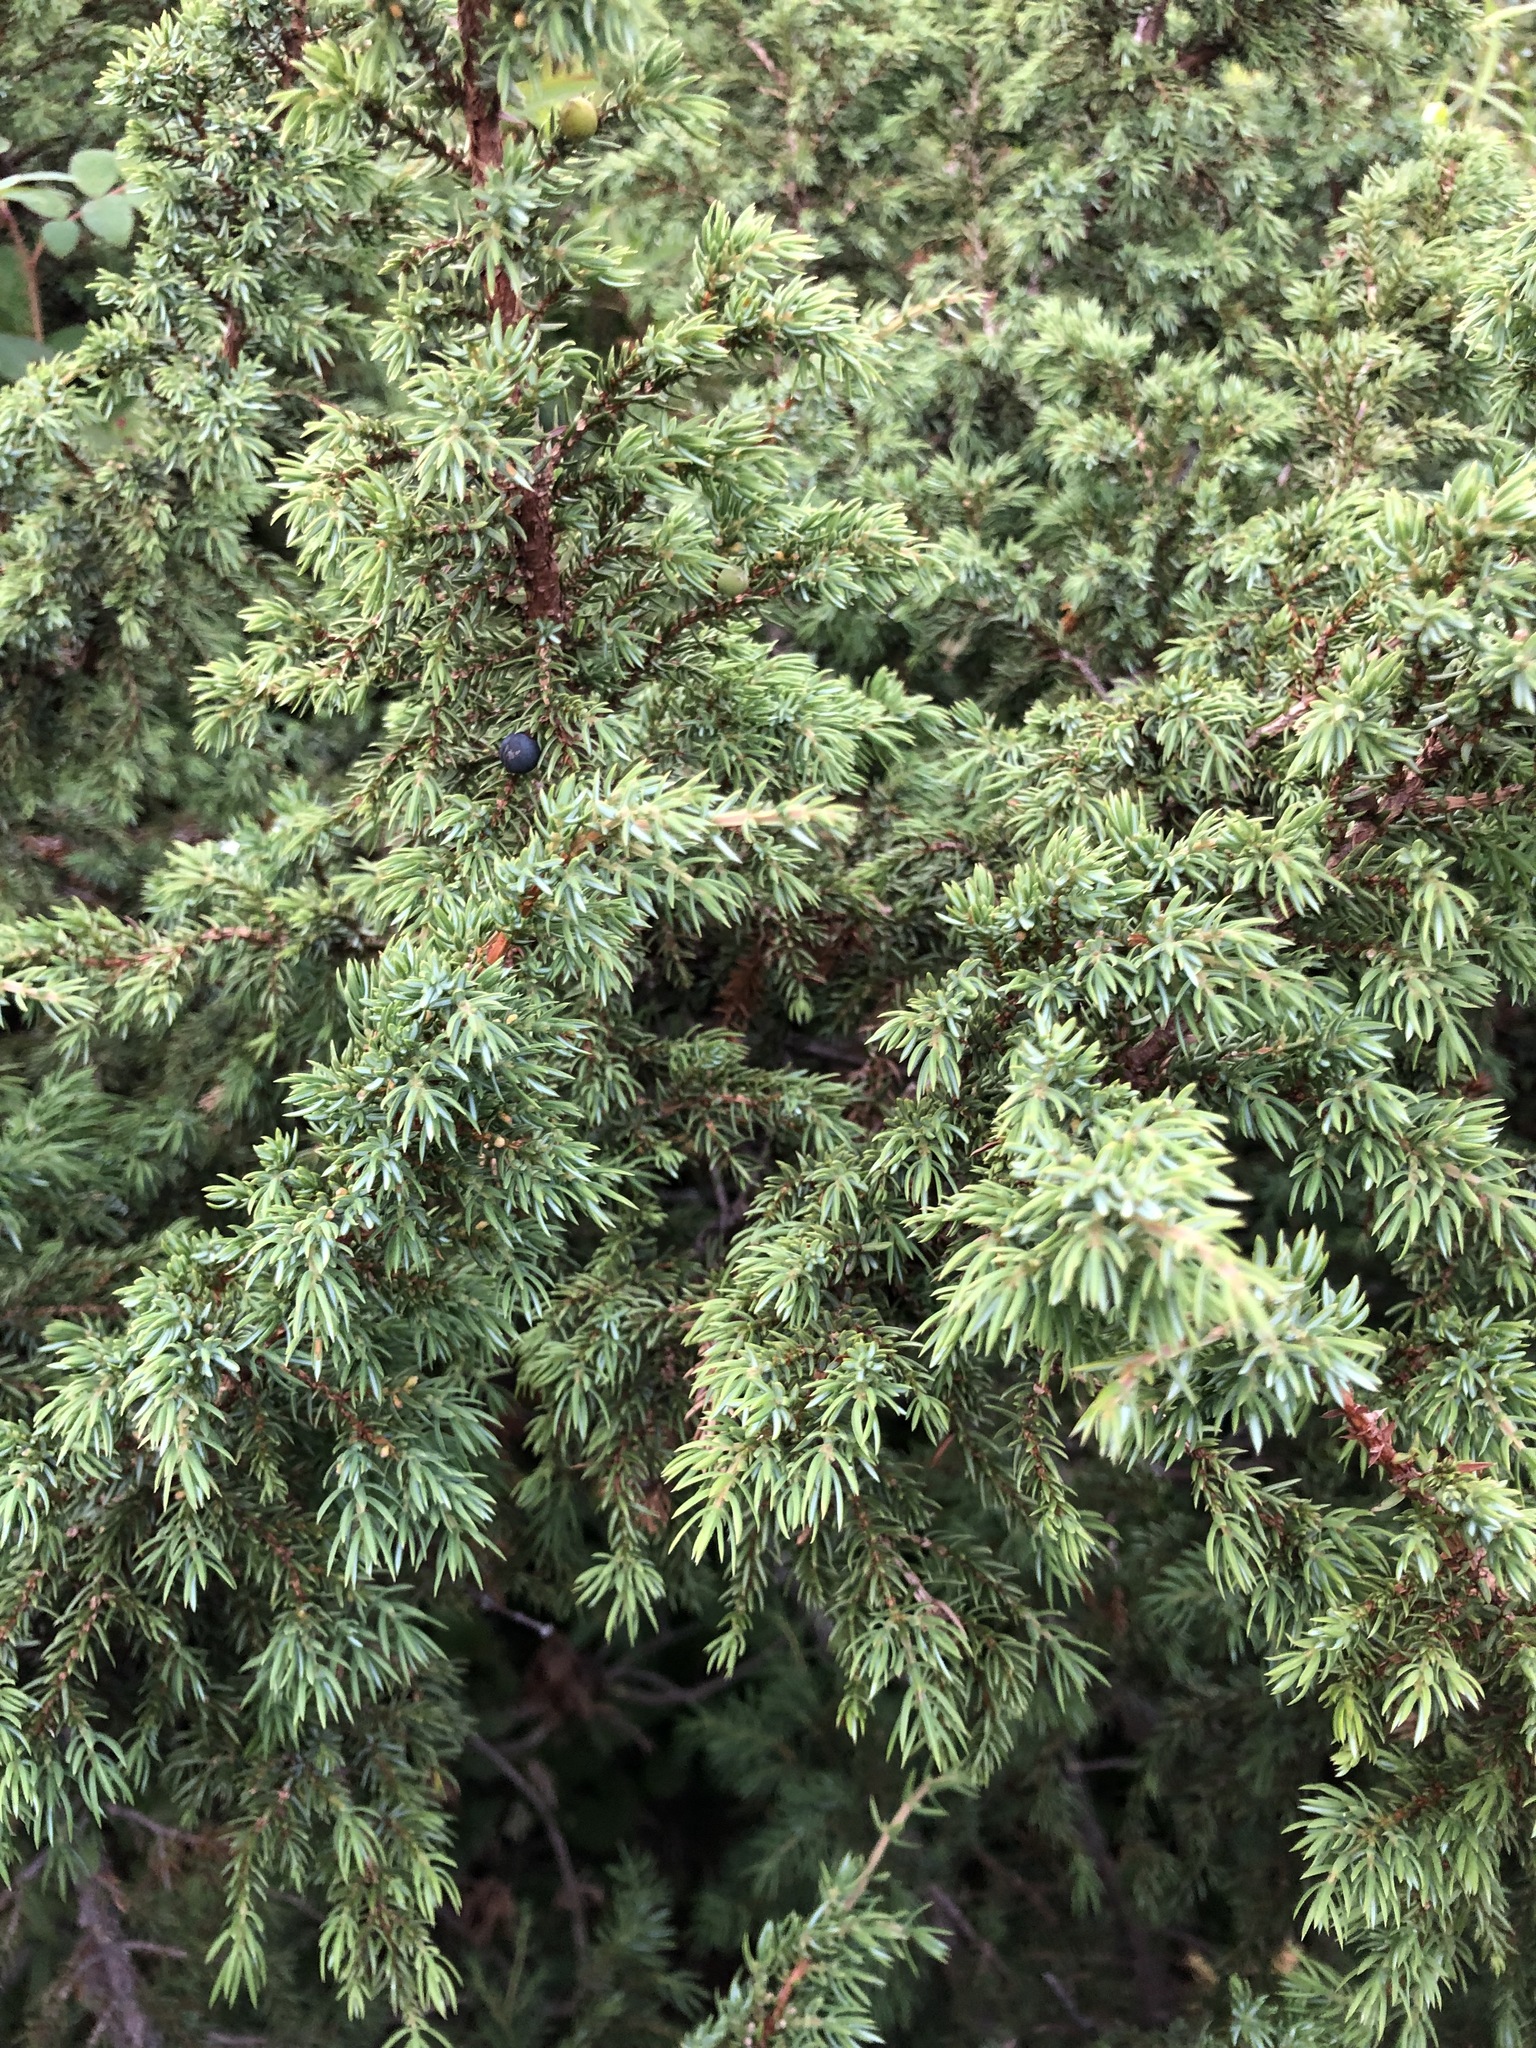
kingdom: Plantae
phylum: Tracheophyta
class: Pinopsida
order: Pinales
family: Cupressaceae
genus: Juniperus
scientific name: Juniperus communis
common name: Common juniper
